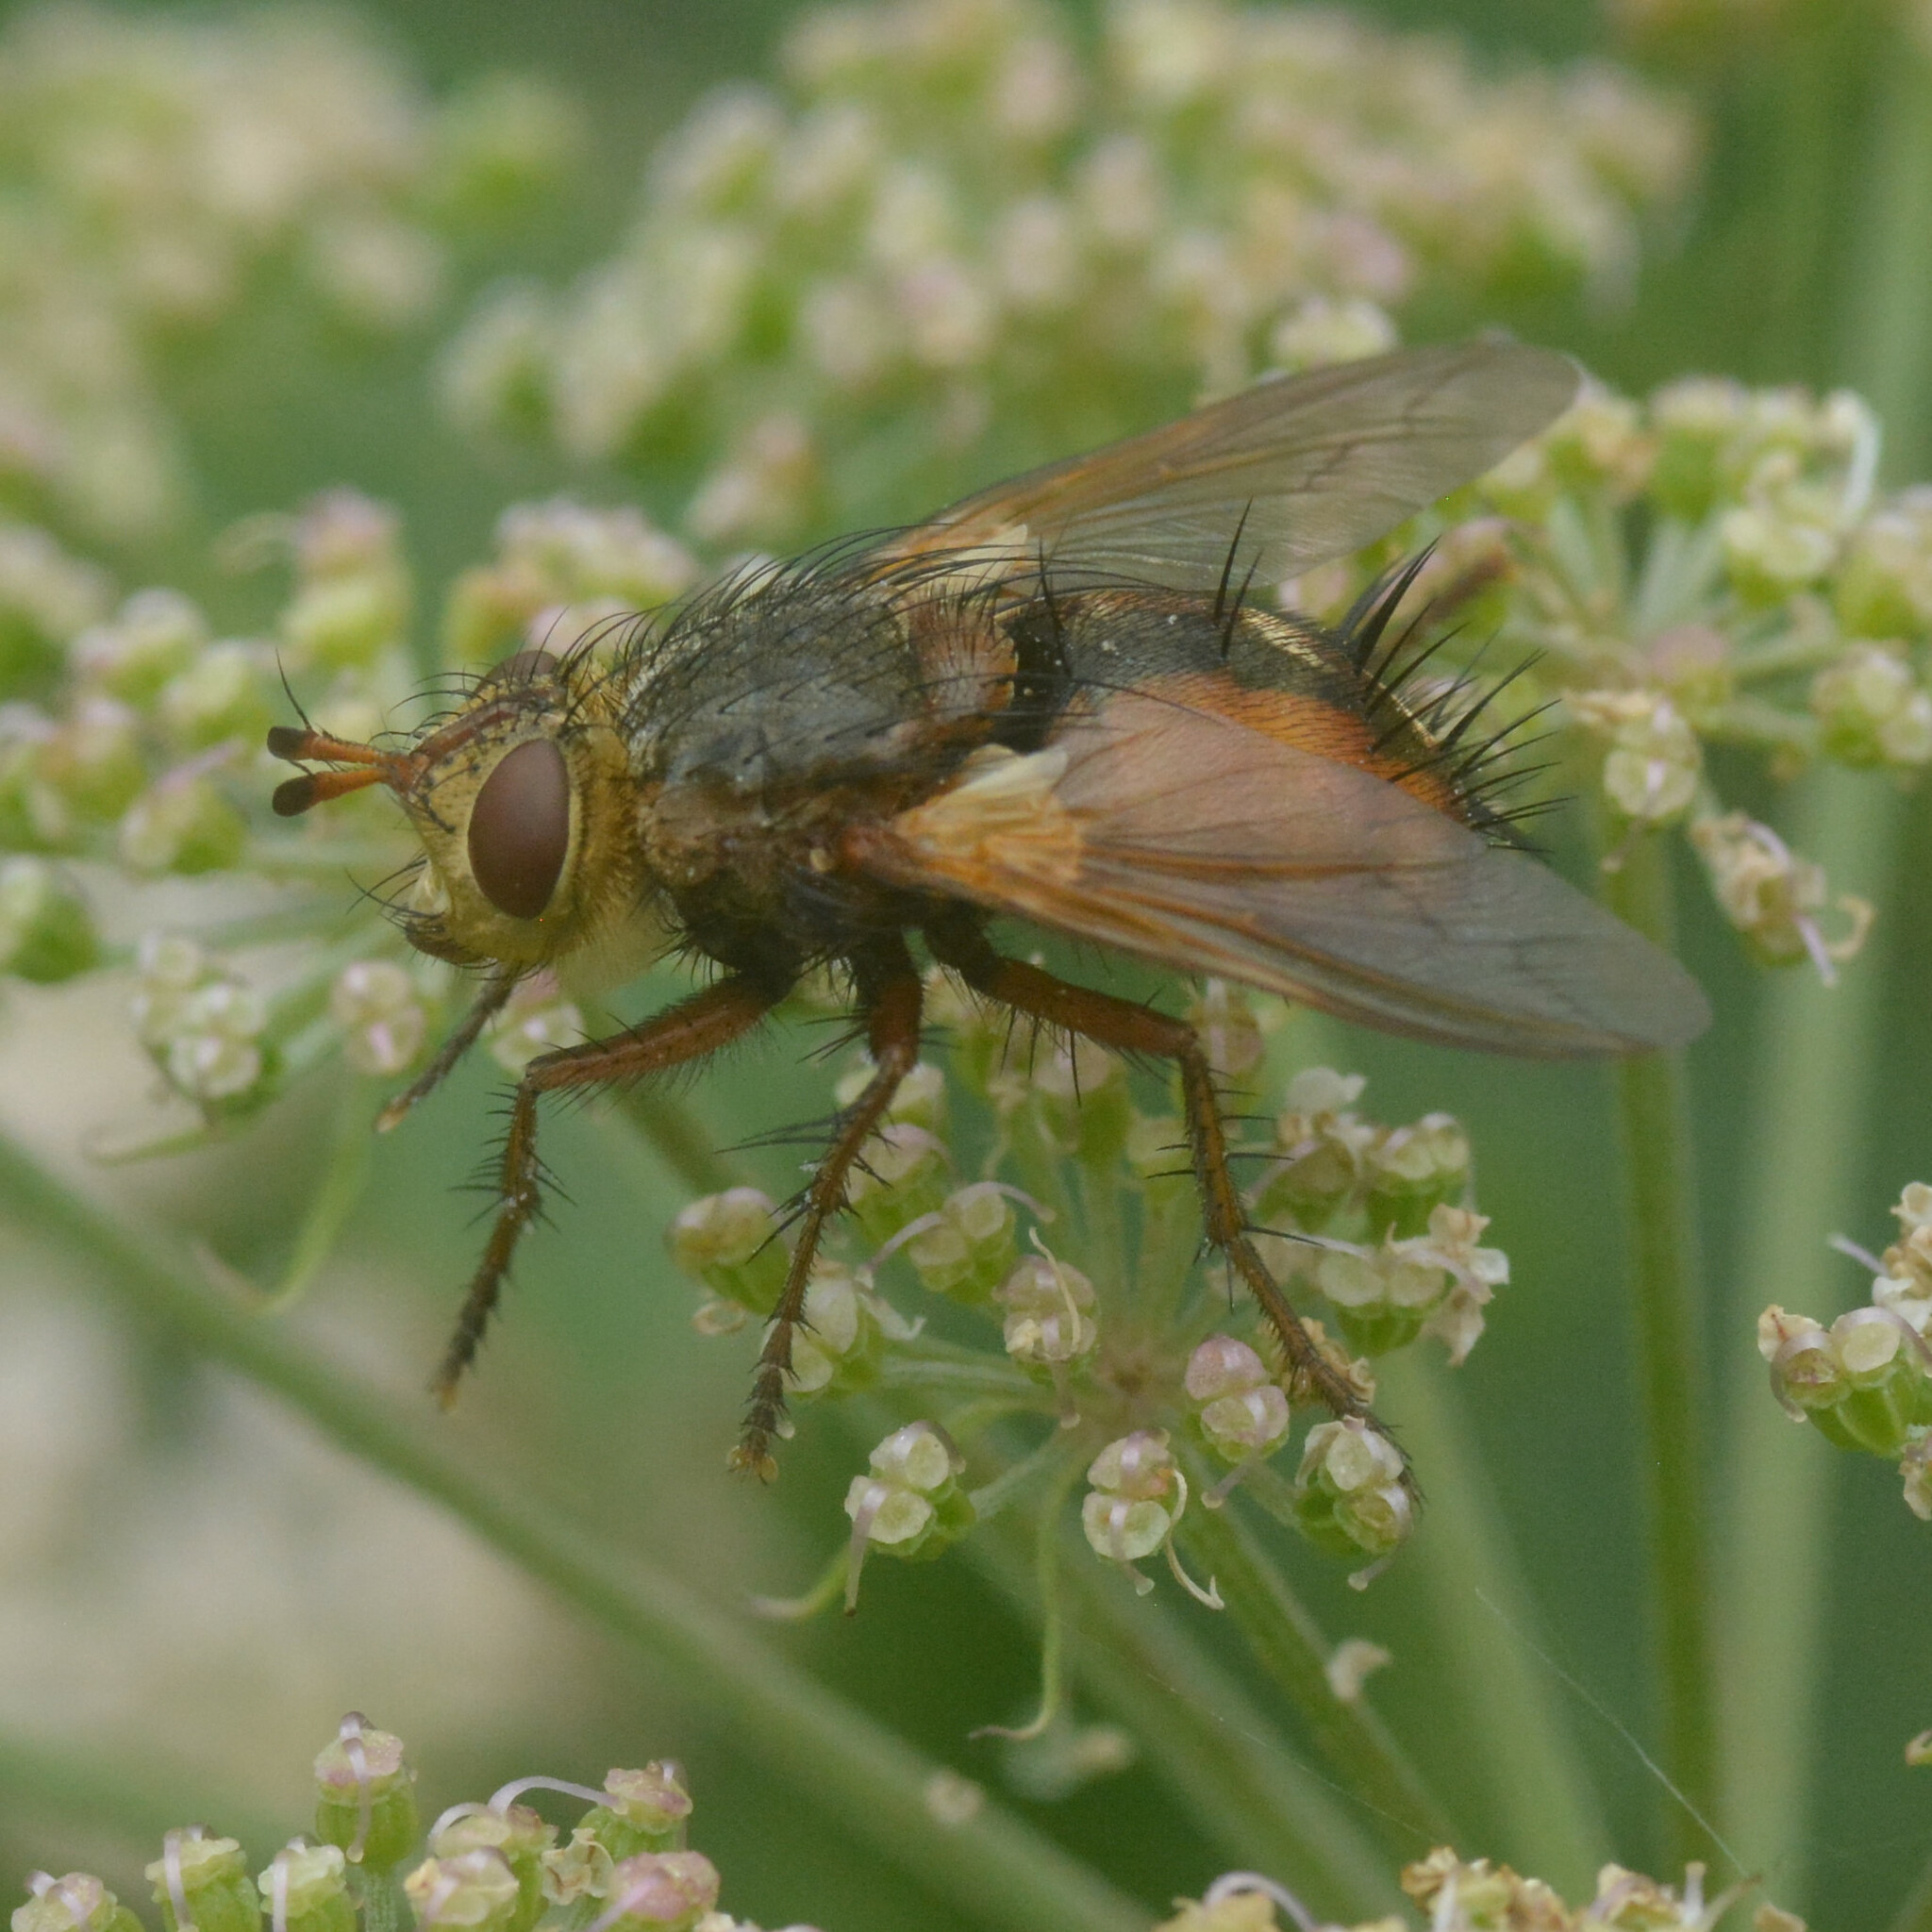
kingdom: Animalia
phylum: Arthropoda
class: Insecta
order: Diptera
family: Tachinidae
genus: Tachina
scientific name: Tachina fera
